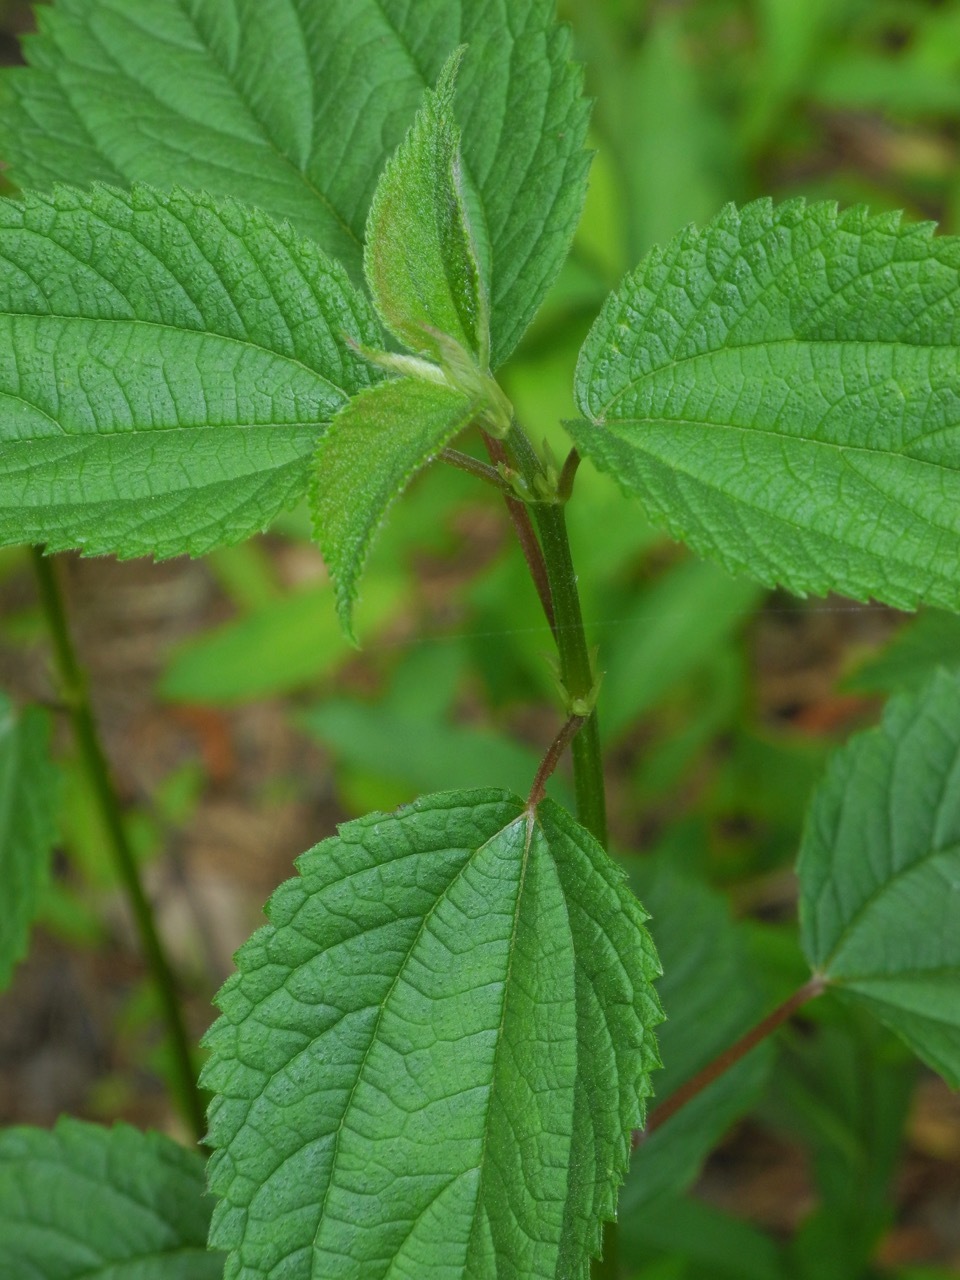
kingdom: Plantae
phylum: Tracheophyta
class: Magnoliopsida
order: Rosales
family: Urticaceae
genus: Boehmeria
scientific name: Boehmeria cylindrica
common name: Bog-hemp
